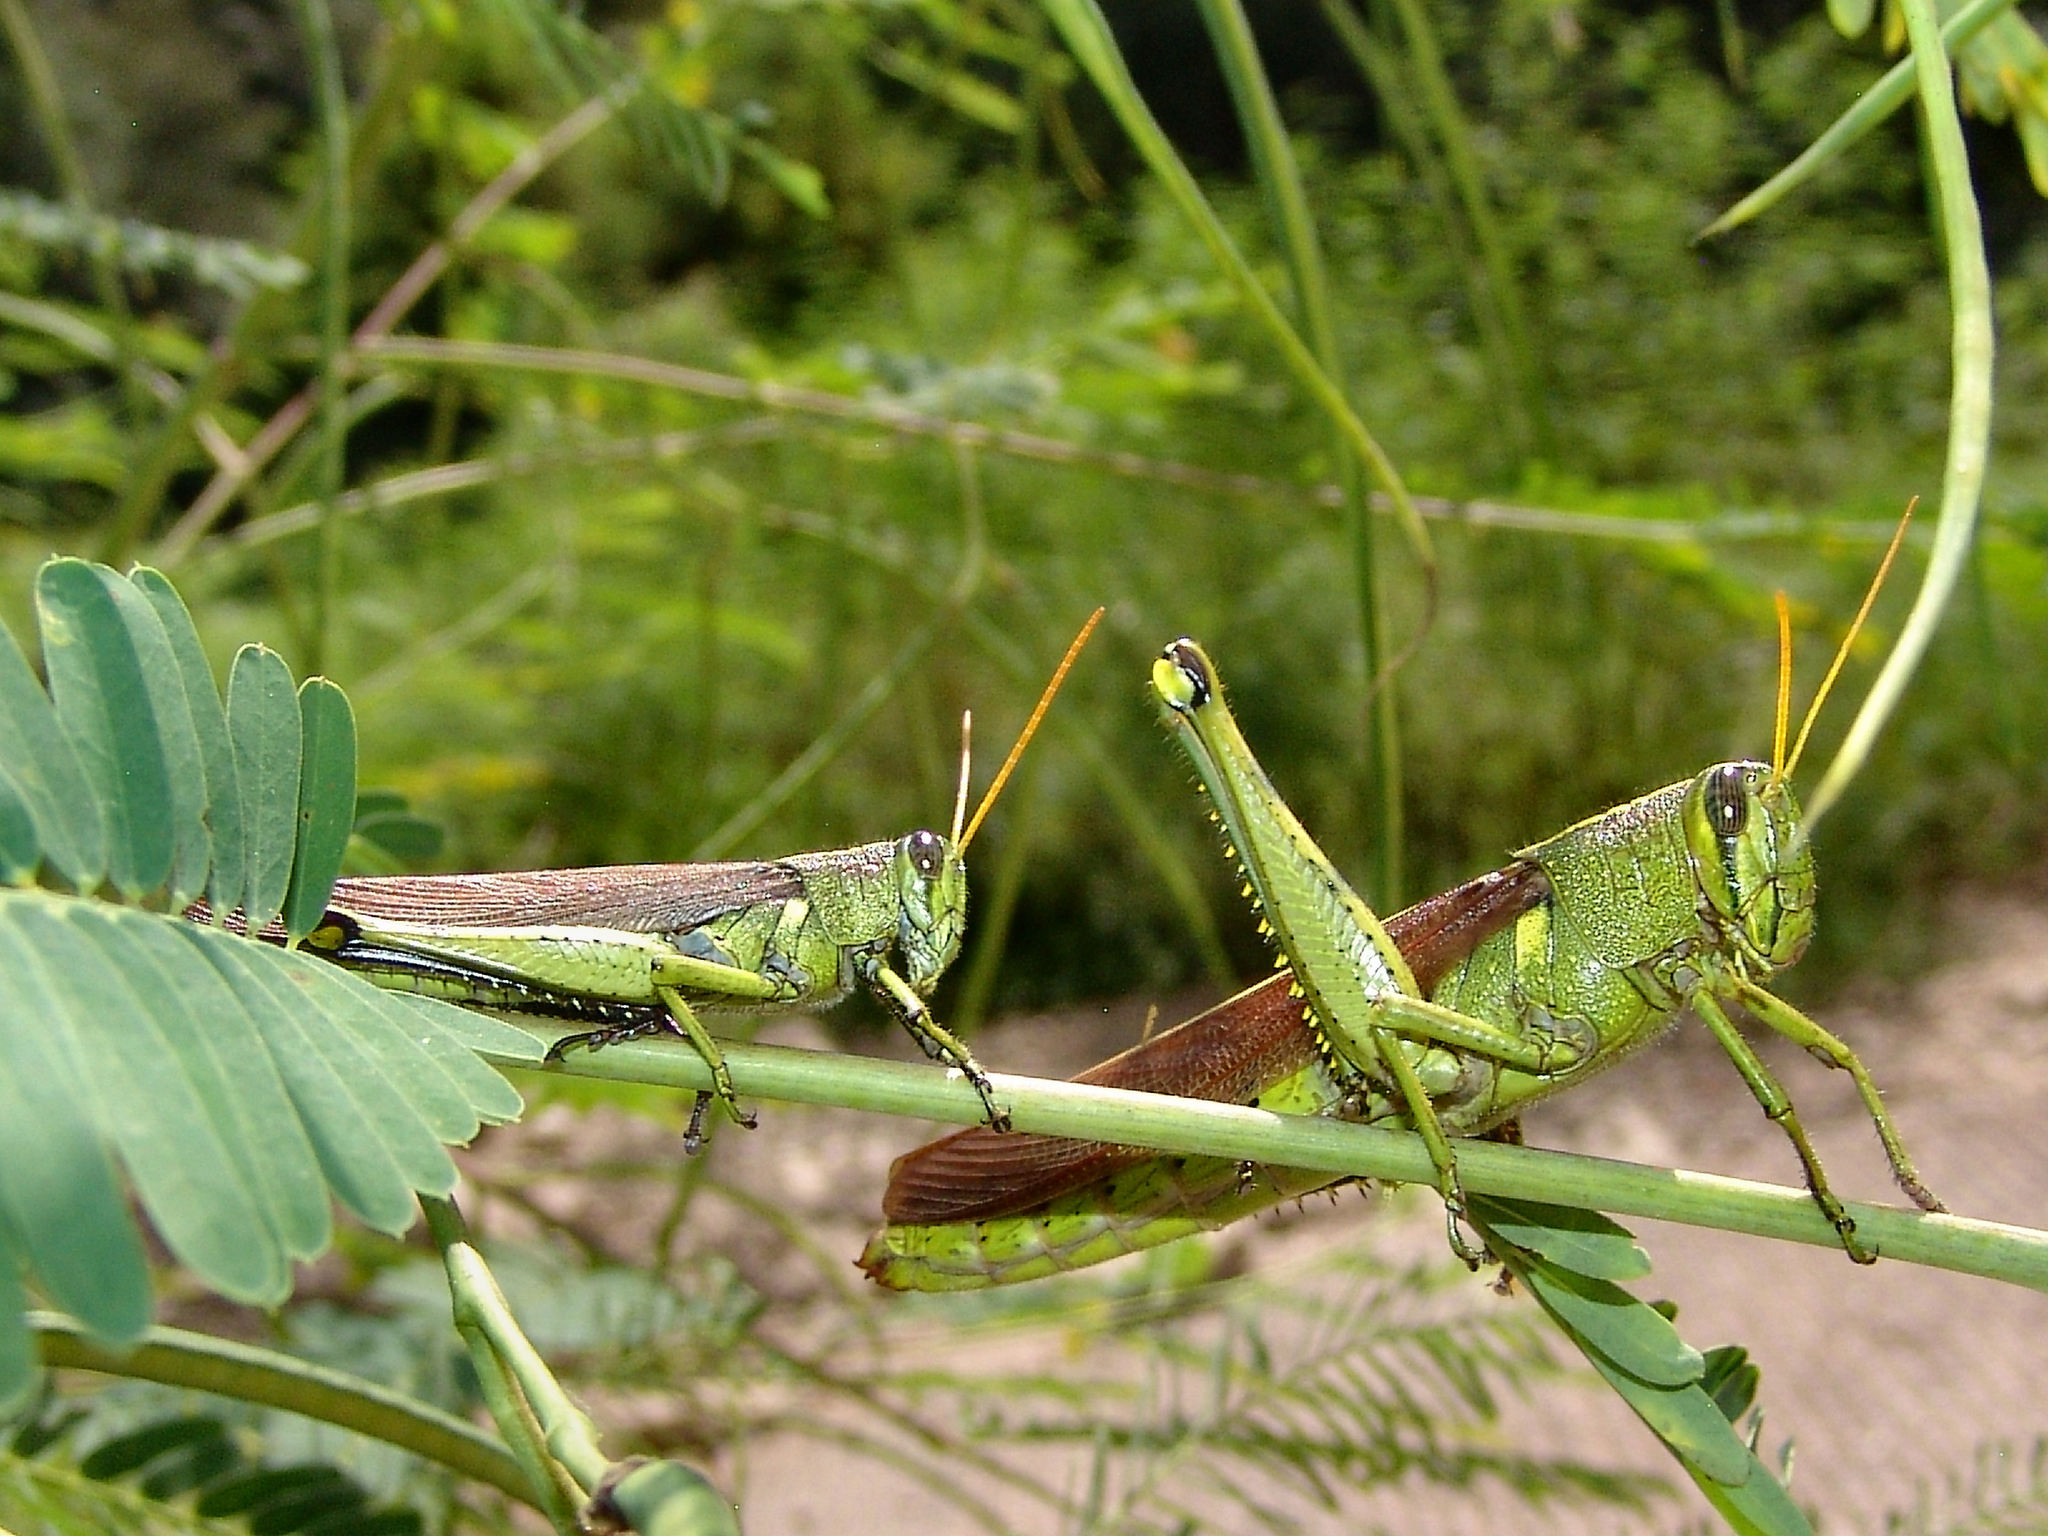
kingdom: Animalia
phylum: Arthropoda
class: Insecta
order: Orthoptera
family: Acrididae
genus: Schistocerca
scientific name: Schistocerca obscura
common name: Obscure bird grasshopper
